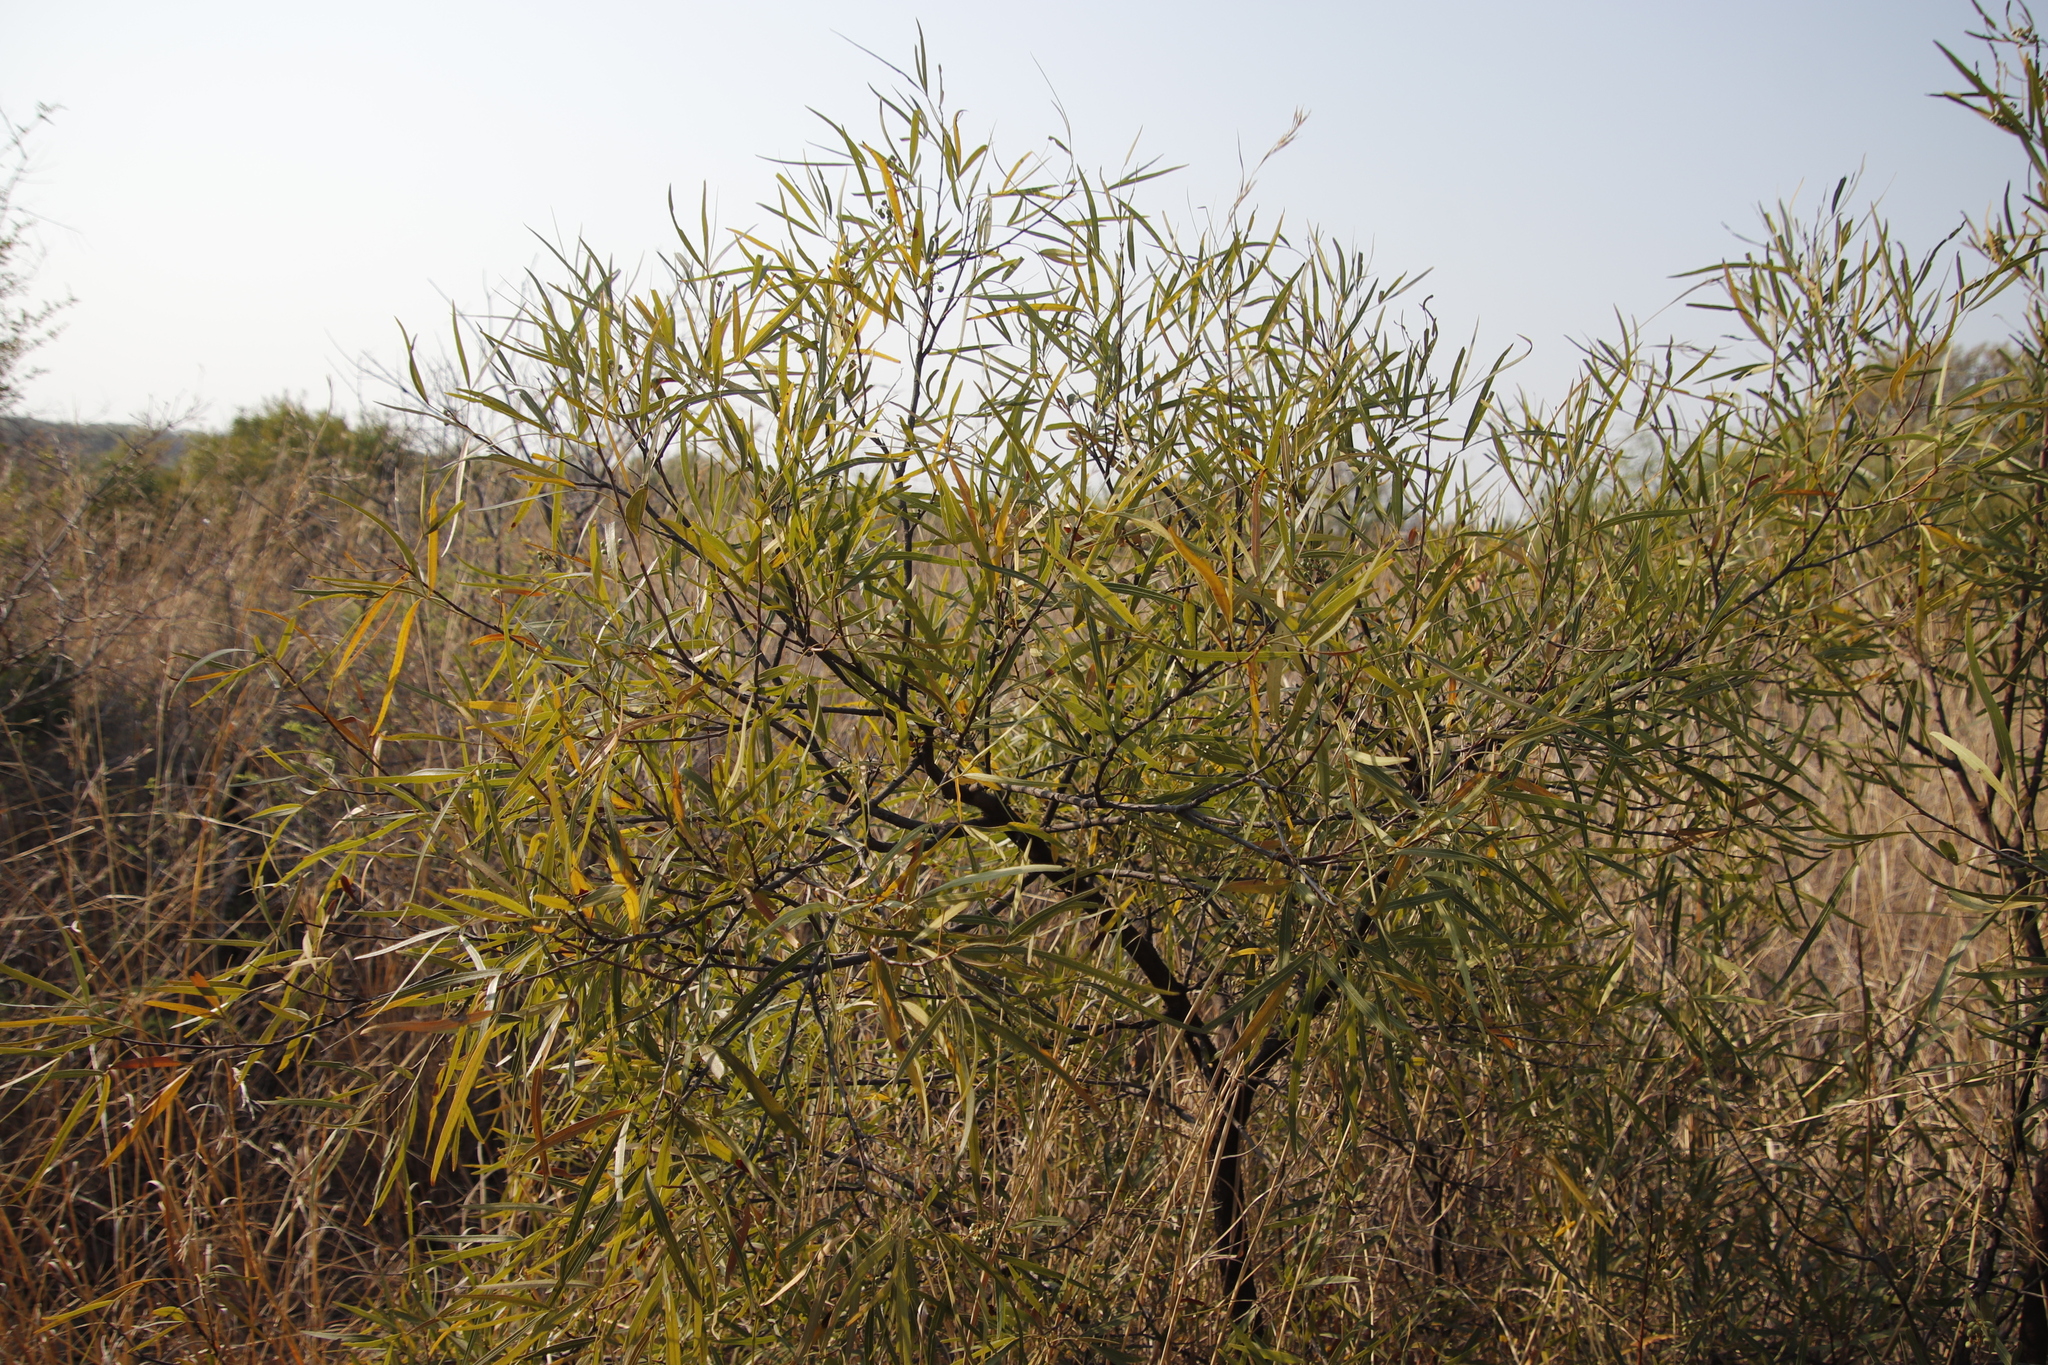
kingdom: Plantae
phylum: Tracheophyta
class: Magnoliopsida
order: Sapindales
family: Anacardiaceae
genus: Searsia
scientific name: Searsia lancea
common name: Cashew
